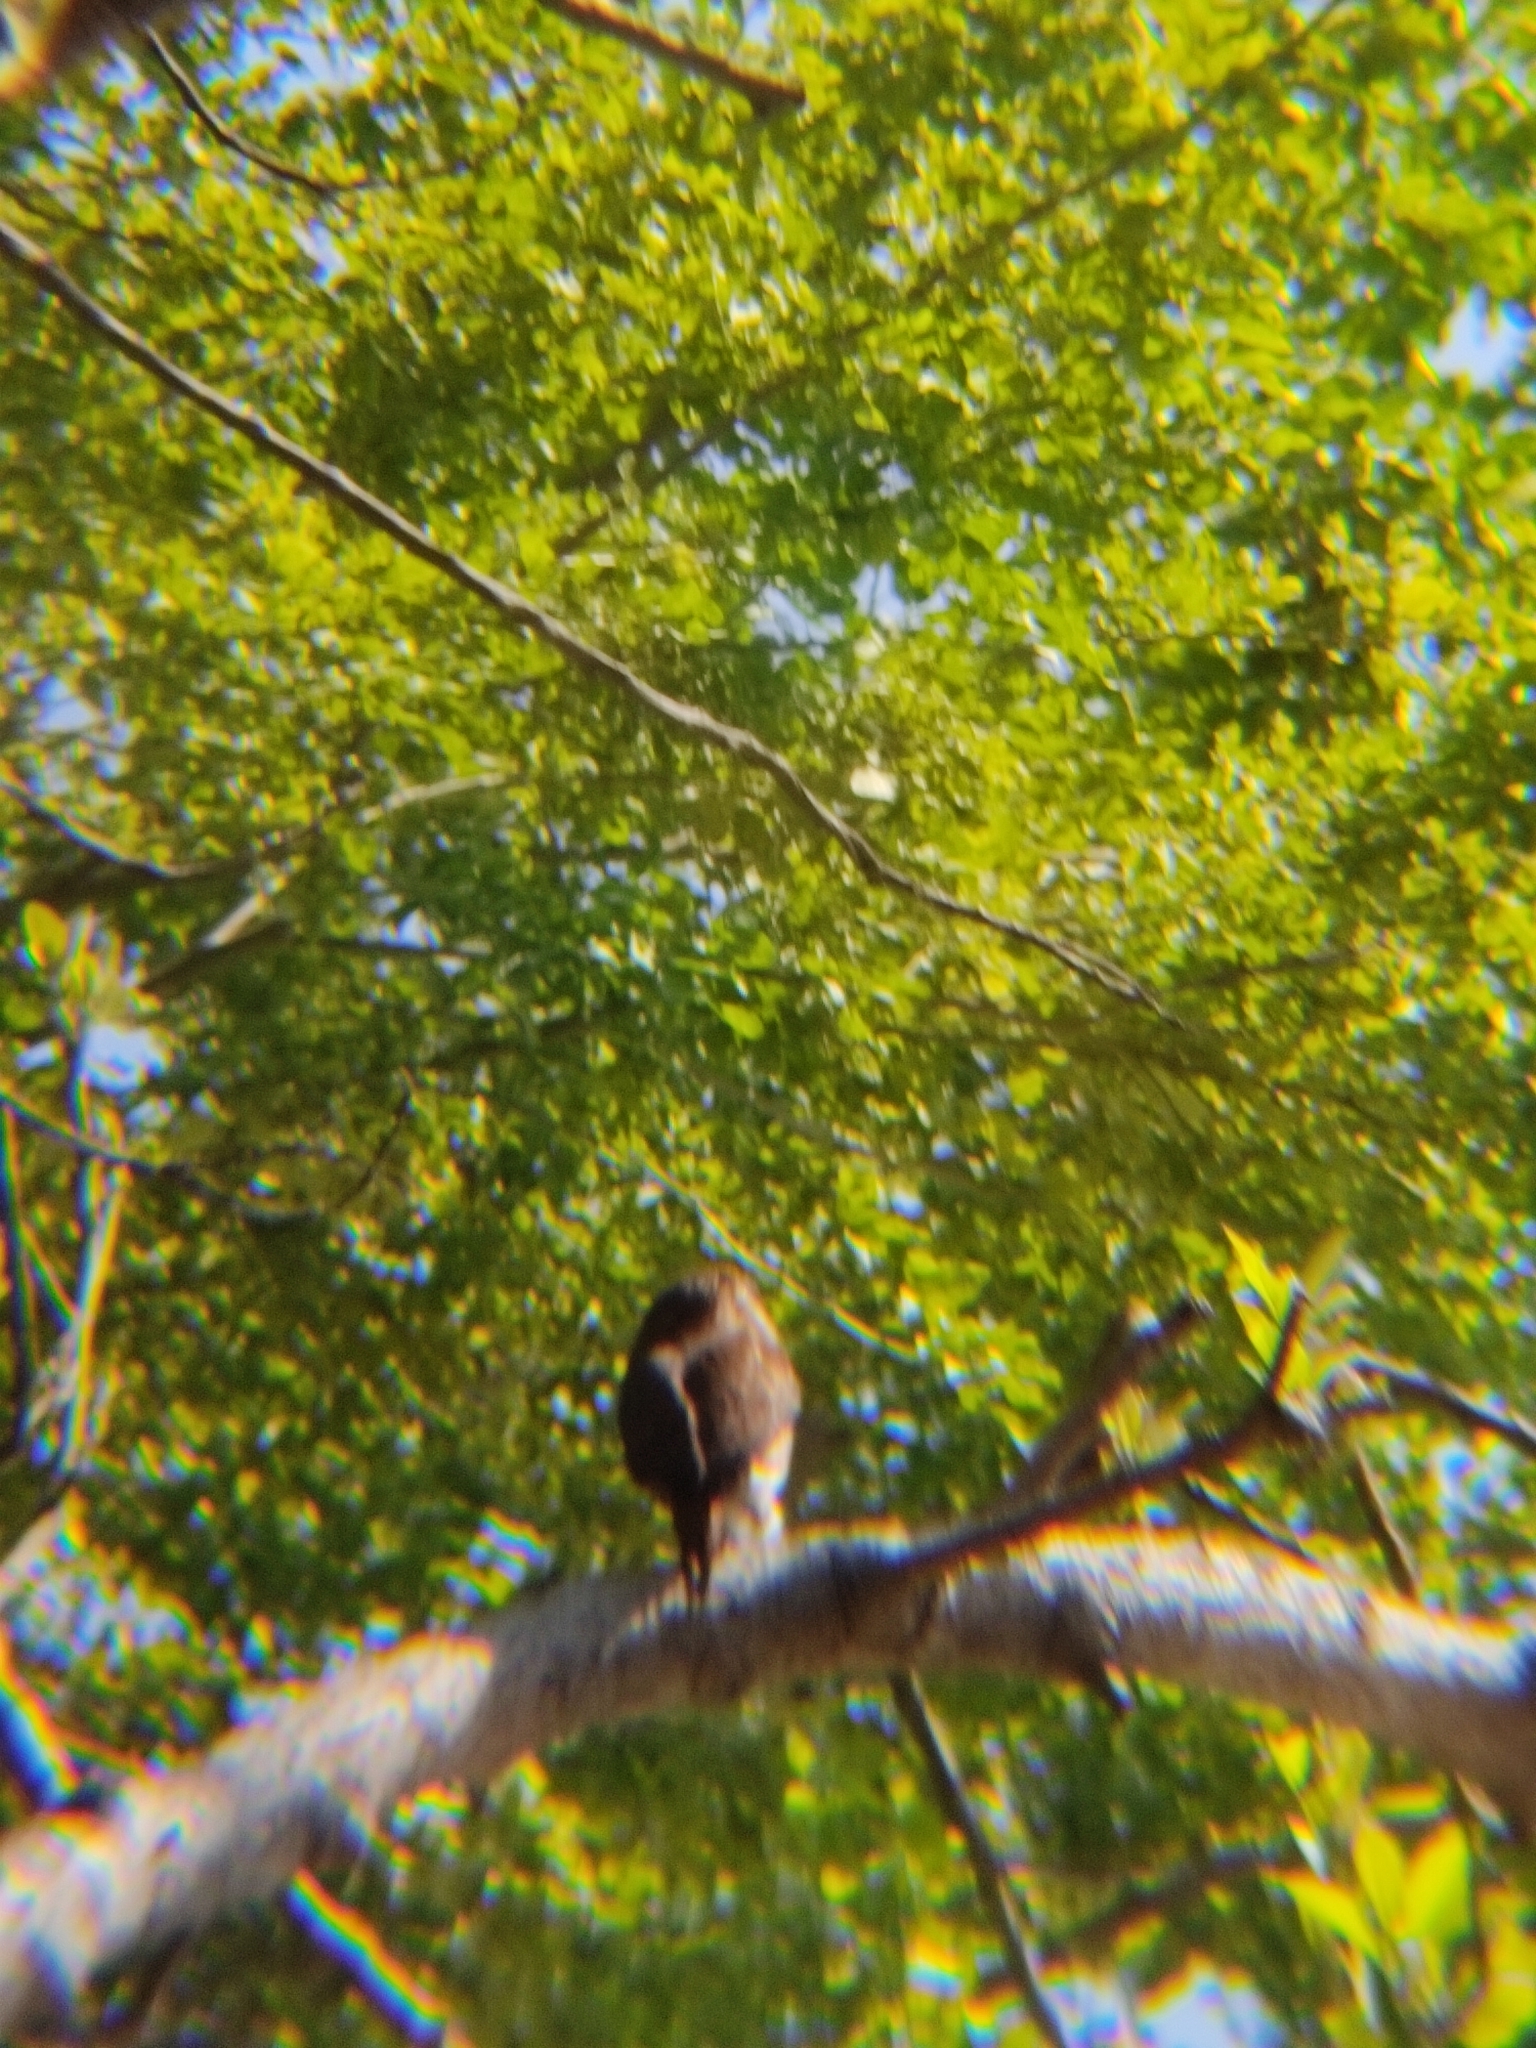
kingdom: Animalia
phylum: Chordata
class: Aves
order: Strigiformes
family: Strigidae
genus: Glaucidium
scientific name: Glaucidium brasilianum
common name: Ferruginous pygmy-owl
